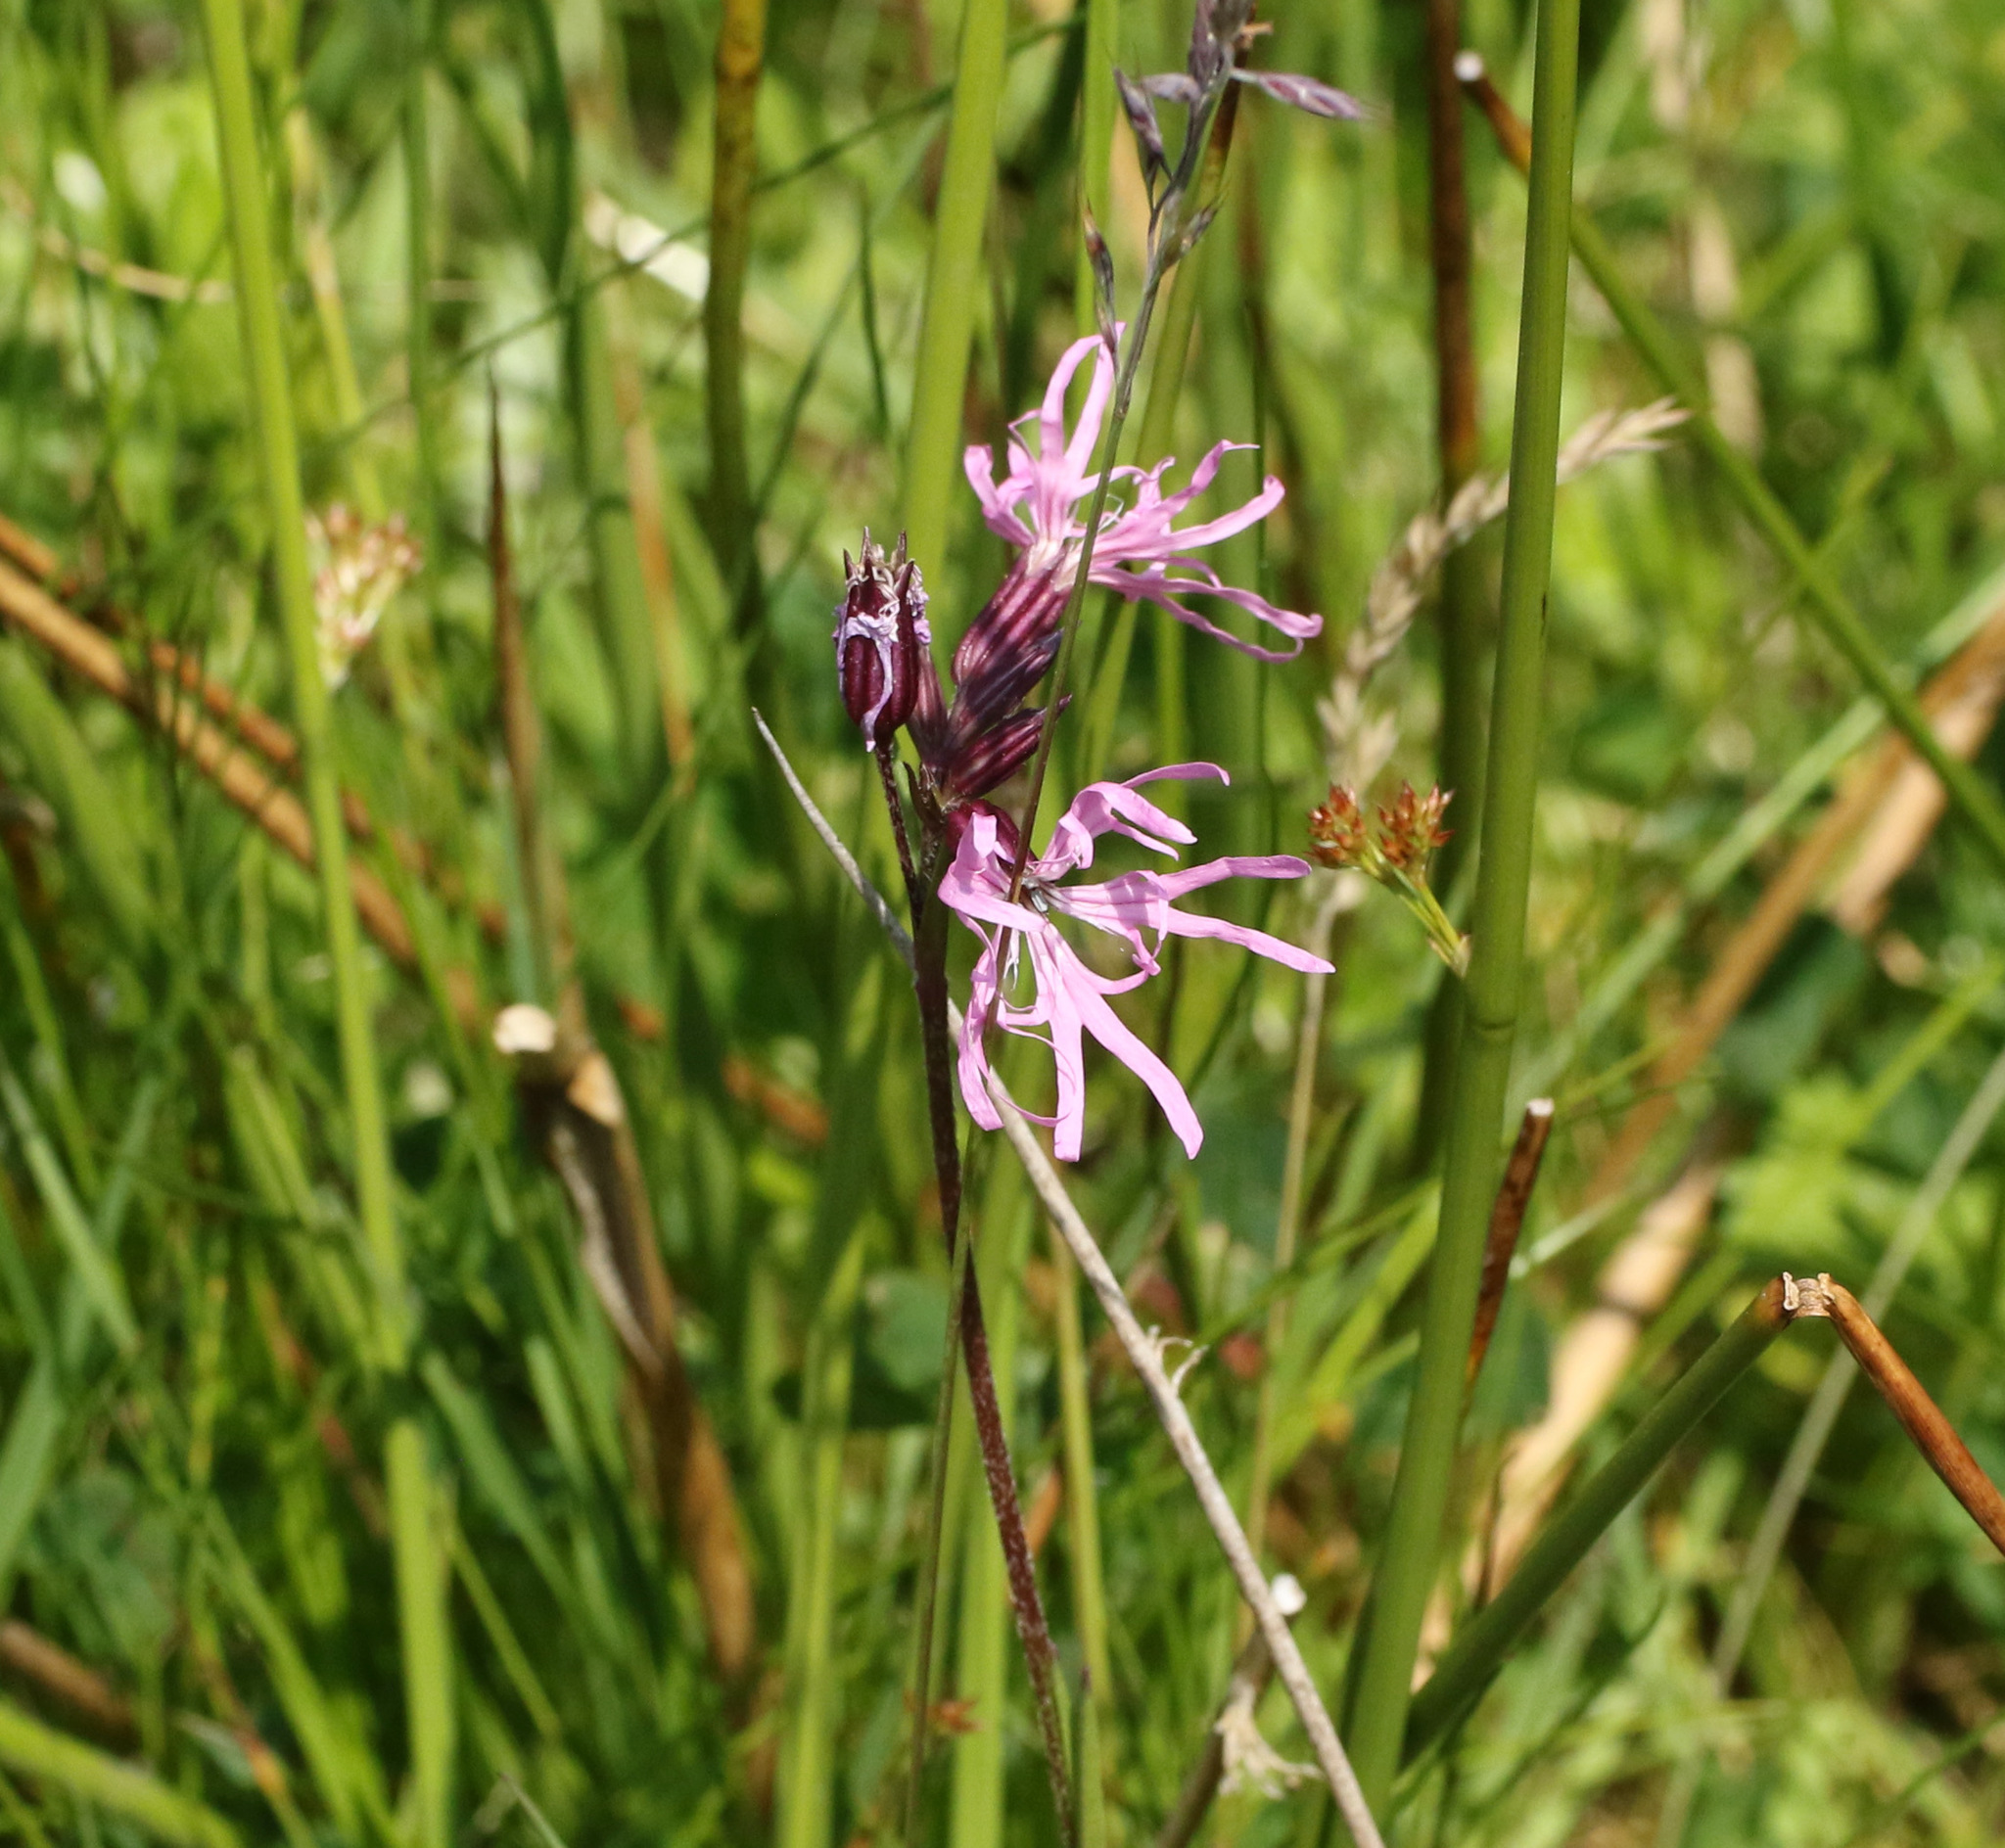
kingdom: Plantae
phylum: Tracheophyta
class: Magnoliopsida
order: Caryophyllales
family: Caryophyllaceae
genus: Silene
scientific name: Silene flos-cuculi
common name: Ragged-robin
